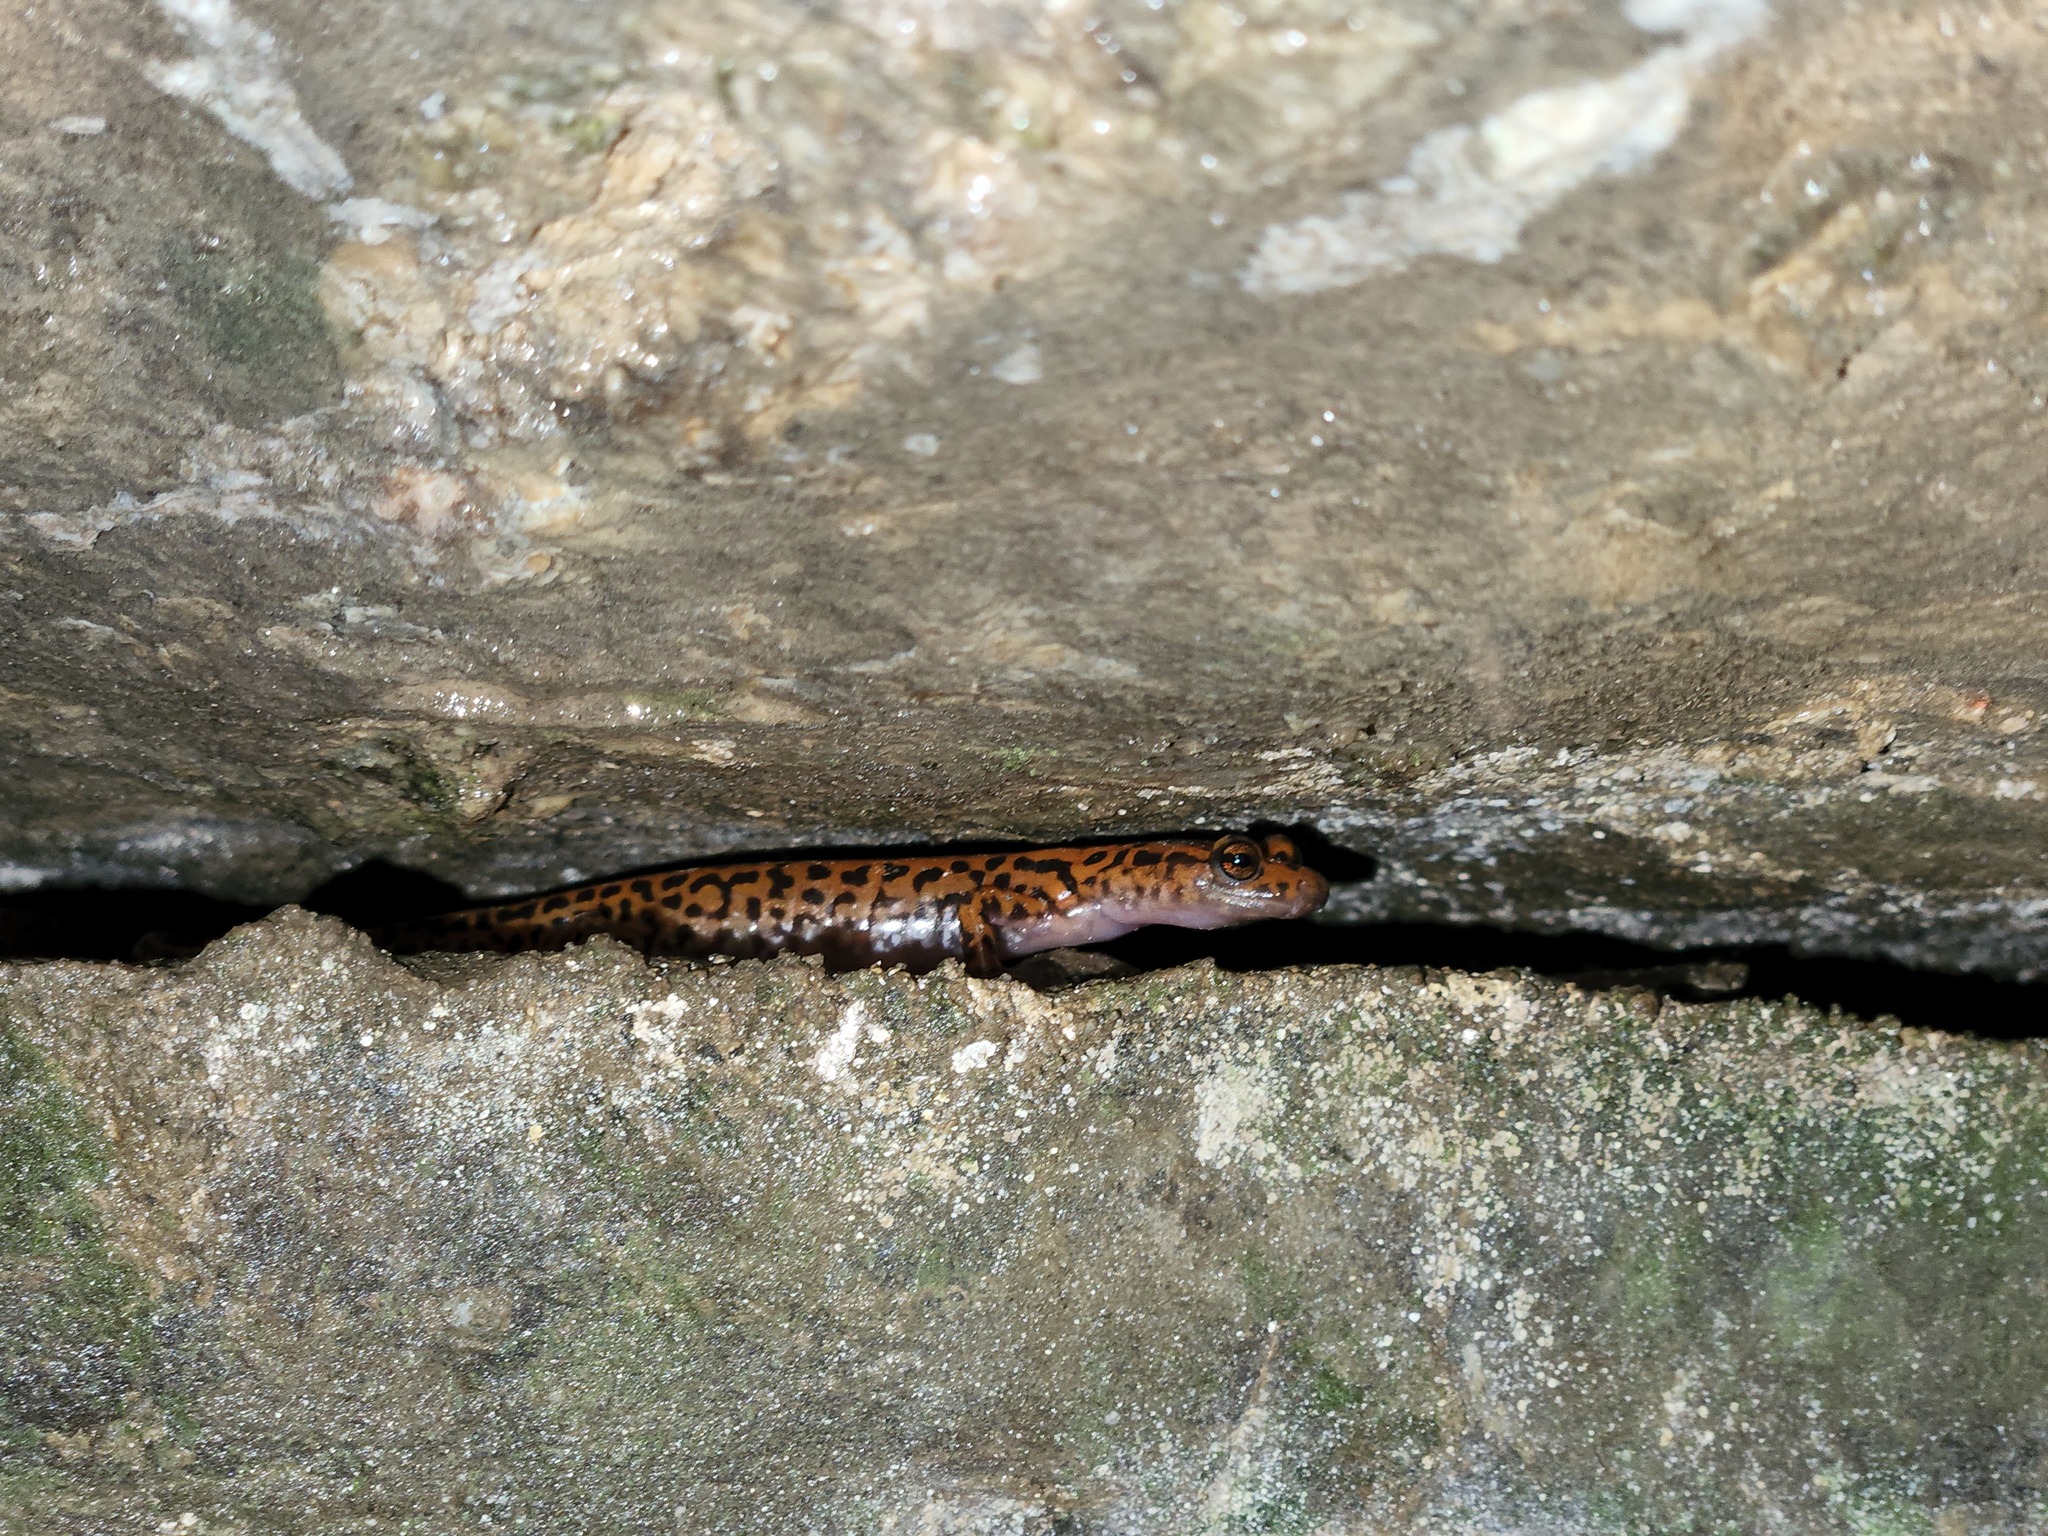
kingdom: Animalia
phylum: Chordata
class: Amphibia
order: Caudata
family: Plethodontidae
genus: Eurycea
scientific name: Eurycea lucifuga
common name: Cave salamander
